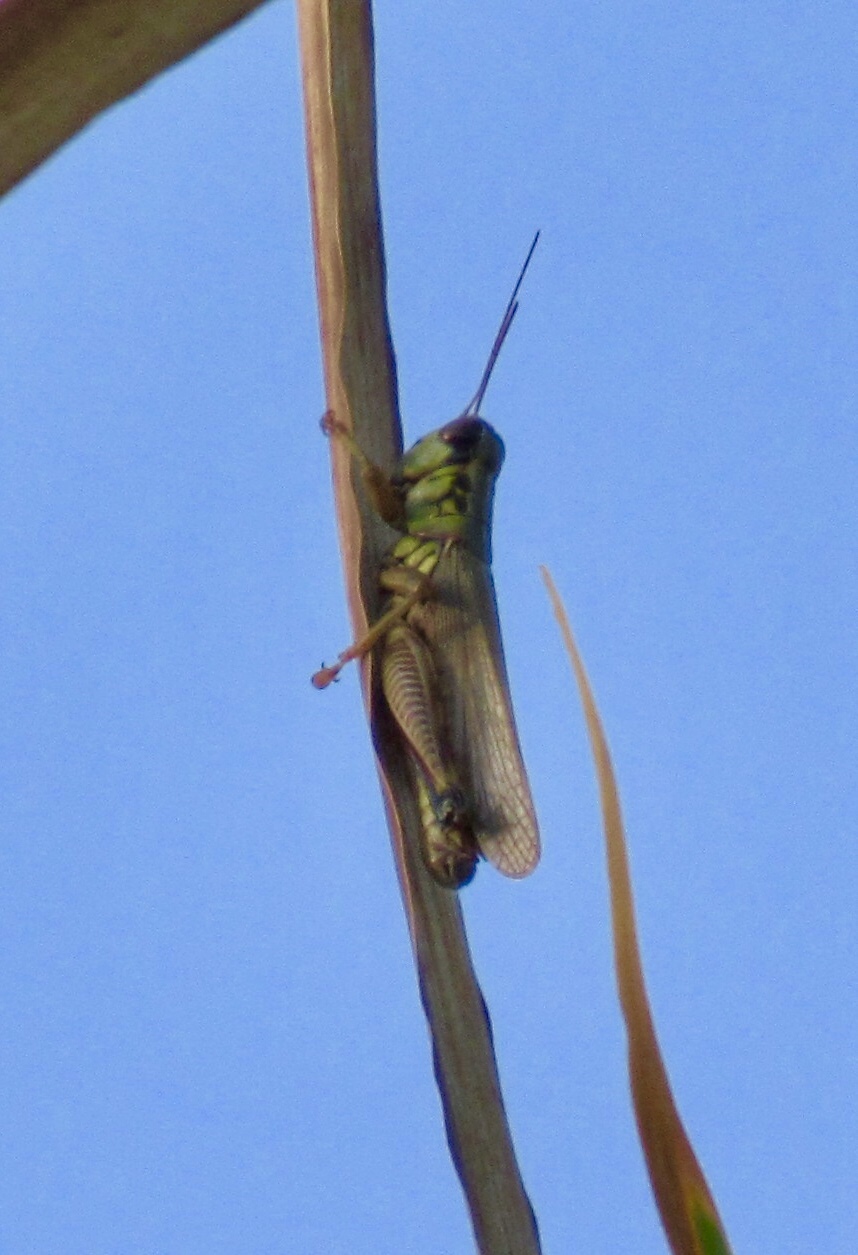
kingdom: Animalia
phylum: Arthropoda
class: Insecta
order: Orthoptera
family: Acrididae
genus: Phoetaliotes
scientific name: Phoetaliotes nebrascensis
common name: Large-headed grasshopper
